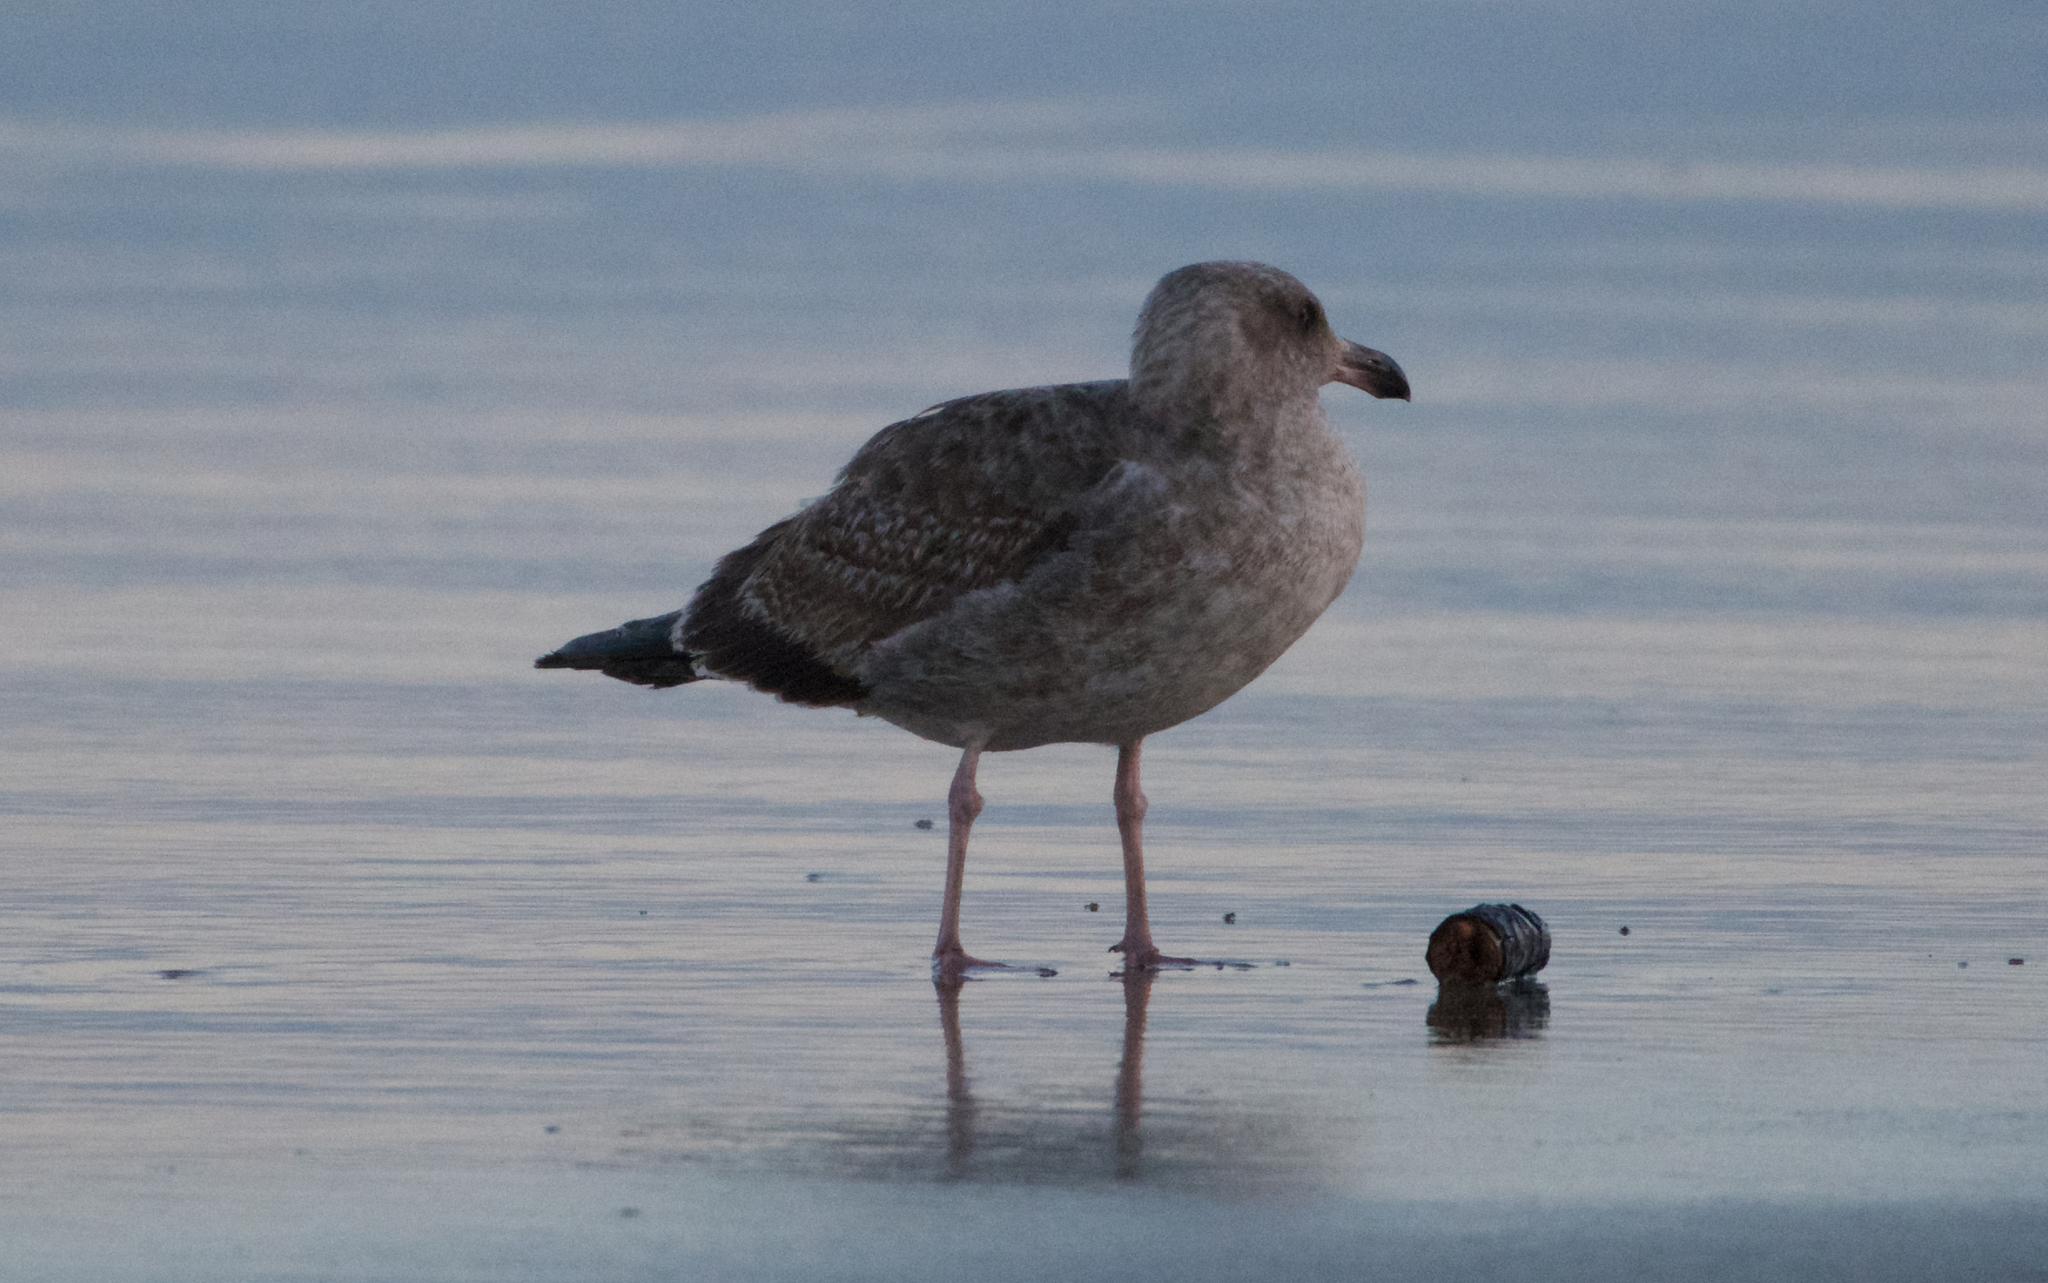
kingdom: Animalia
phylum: Chordata
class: Aves
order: Charadriiformes
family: Laridae
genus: Larus
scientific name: Larus occidentalis
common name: Western gull
